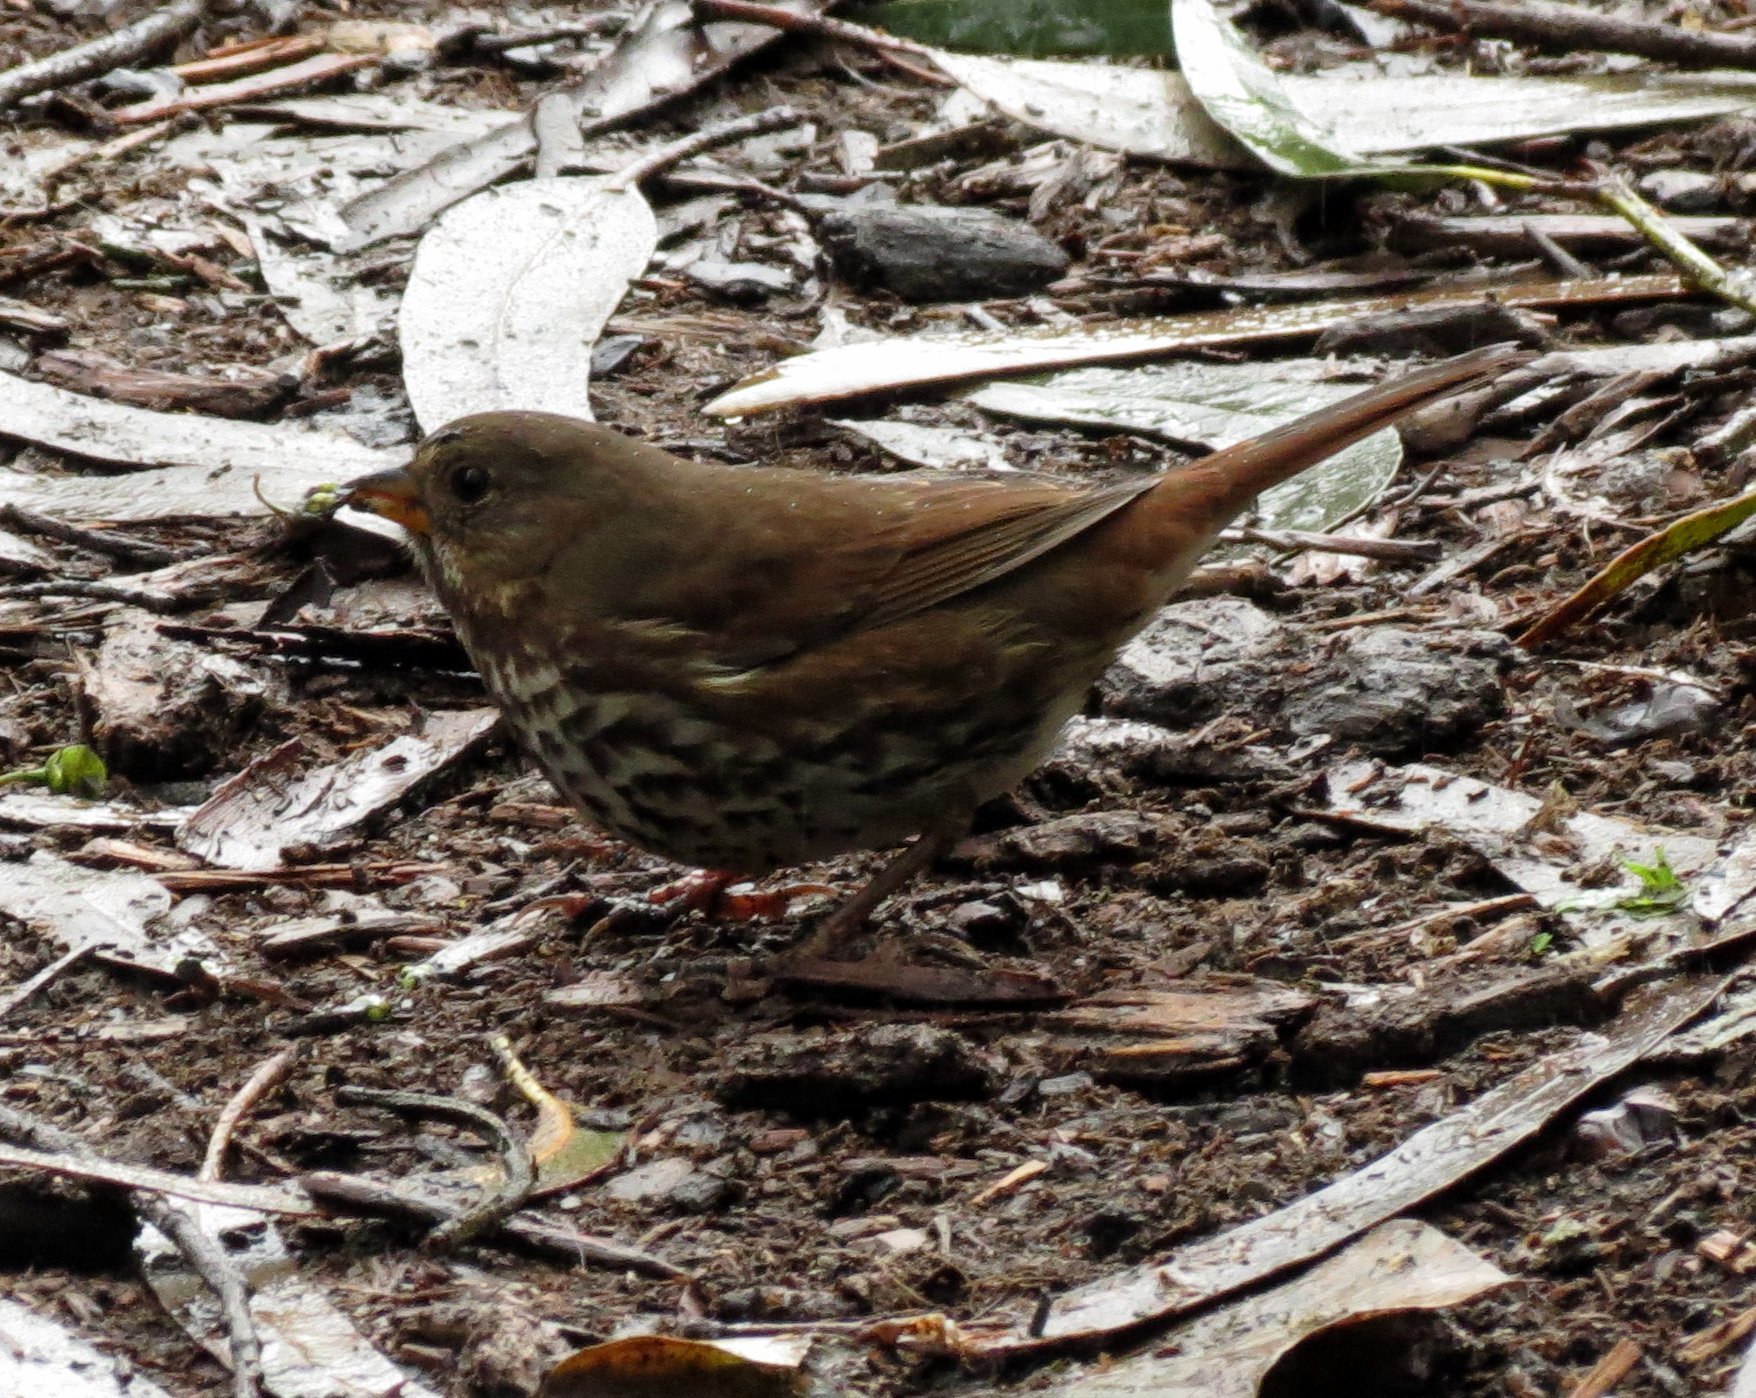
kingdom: Animalia
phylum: Chordata
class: Aves
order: Passeriformes
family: Passerellidae
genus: Passerella
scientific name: Passerella iliaca
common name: Fox sparrow
